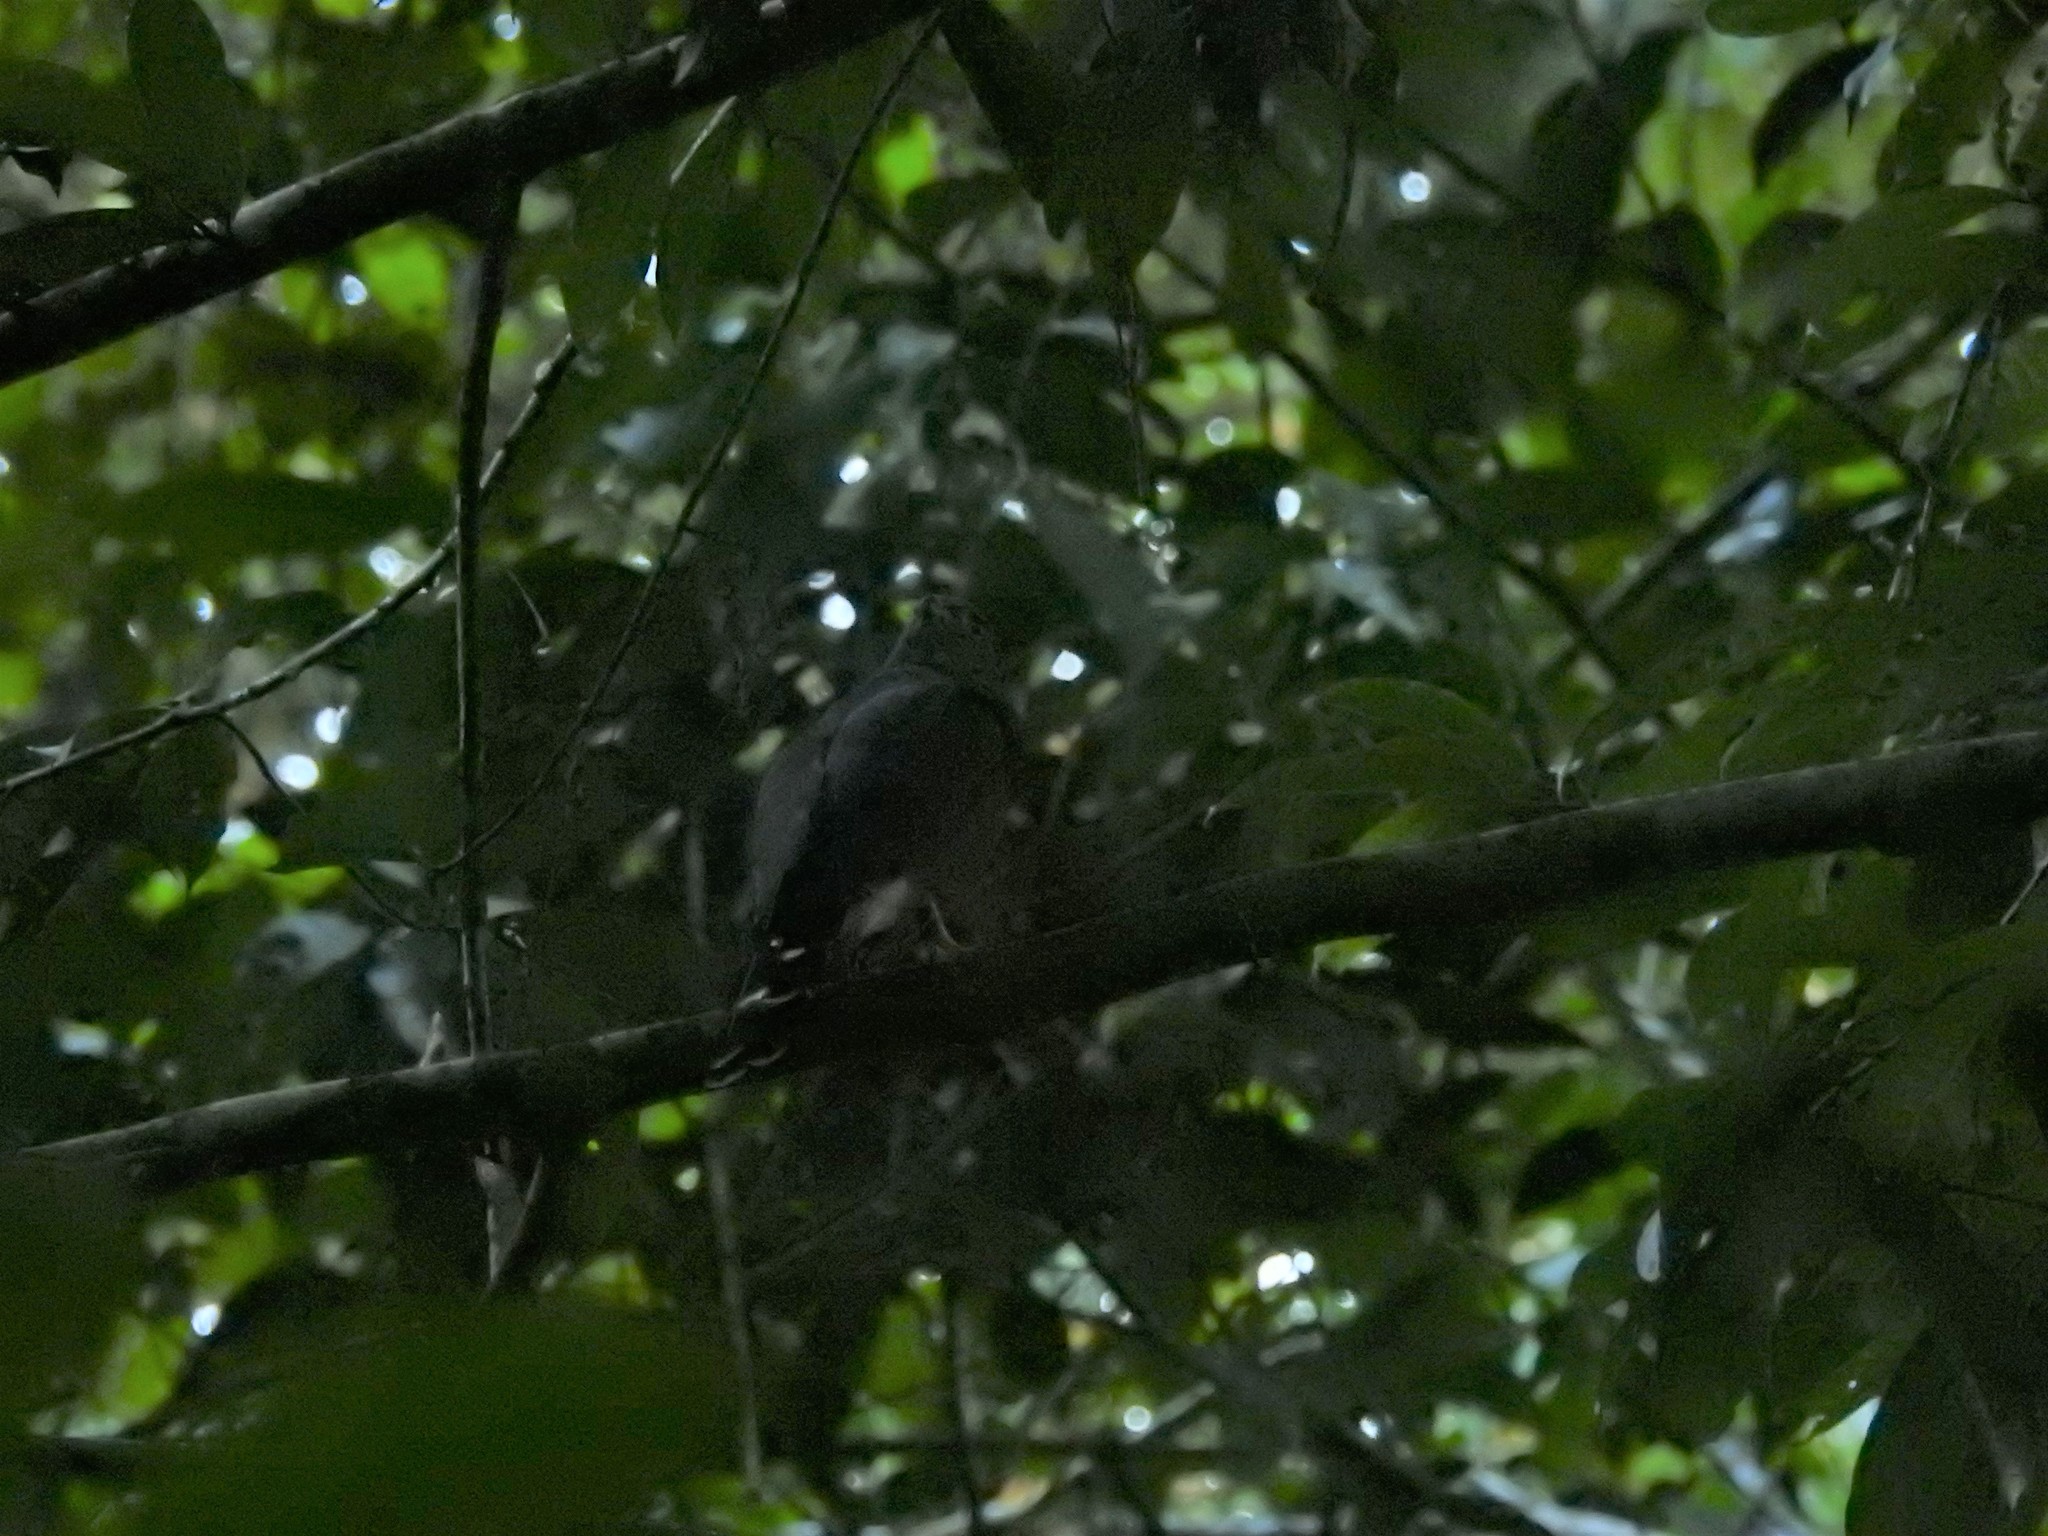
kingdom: Animalia
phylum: Chordata
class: Aves
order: Accipitriformes
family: Accipitridae
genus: Harpagus
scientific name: Harpagus bidentatus
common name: Double-toothed kite
